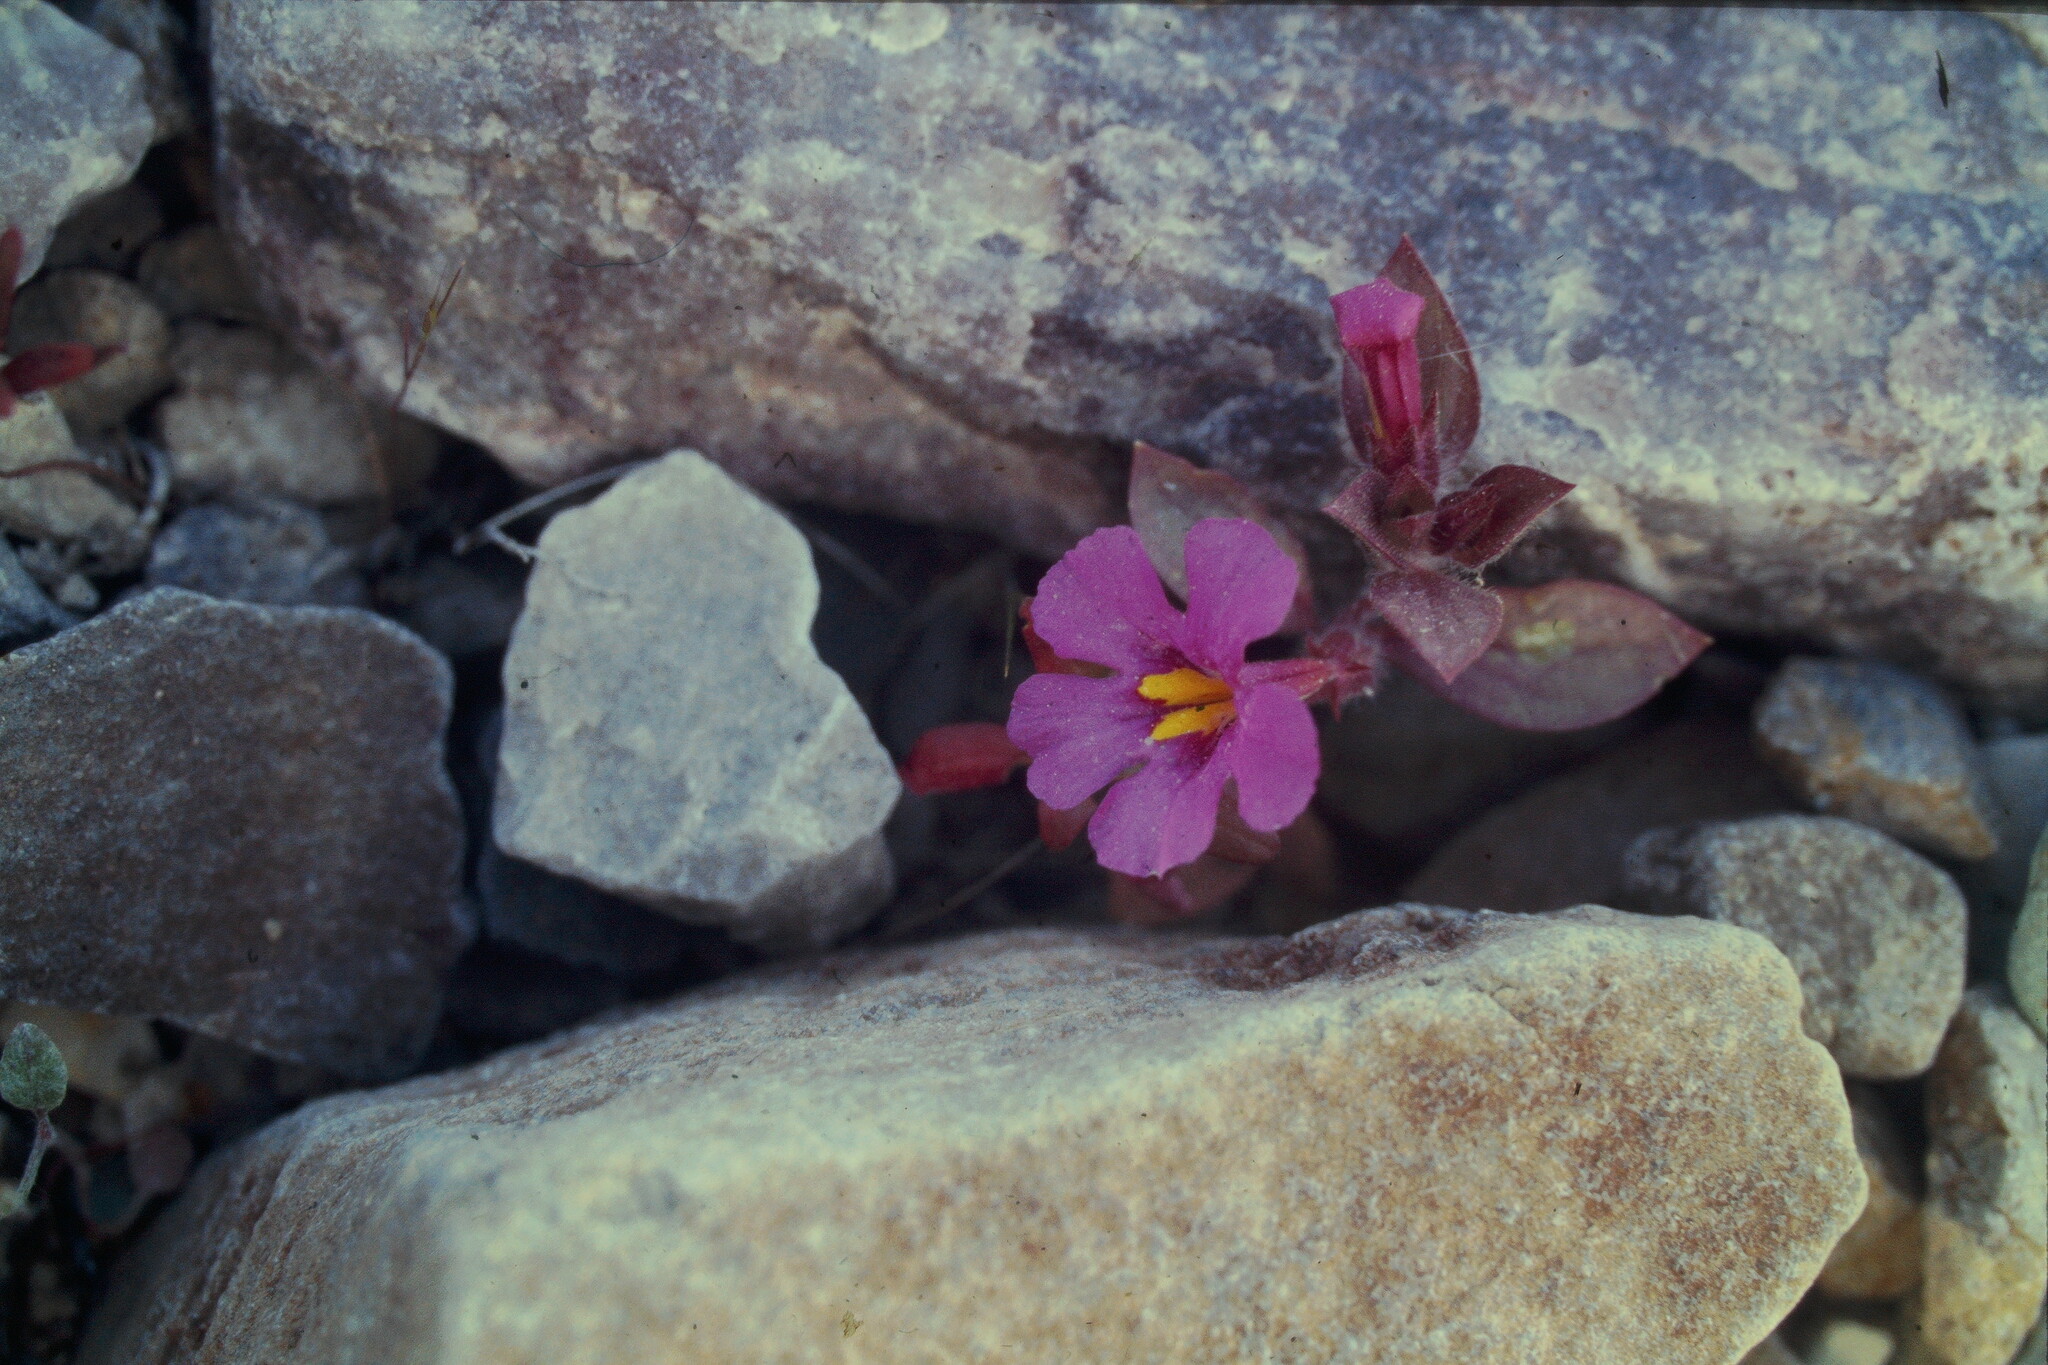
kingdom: Plantae
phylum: Tracheophyta
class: Magnoliopsida
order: Lamiales
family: Phrymaceae
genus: Diplacus
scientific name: Diplacus bigelovii
